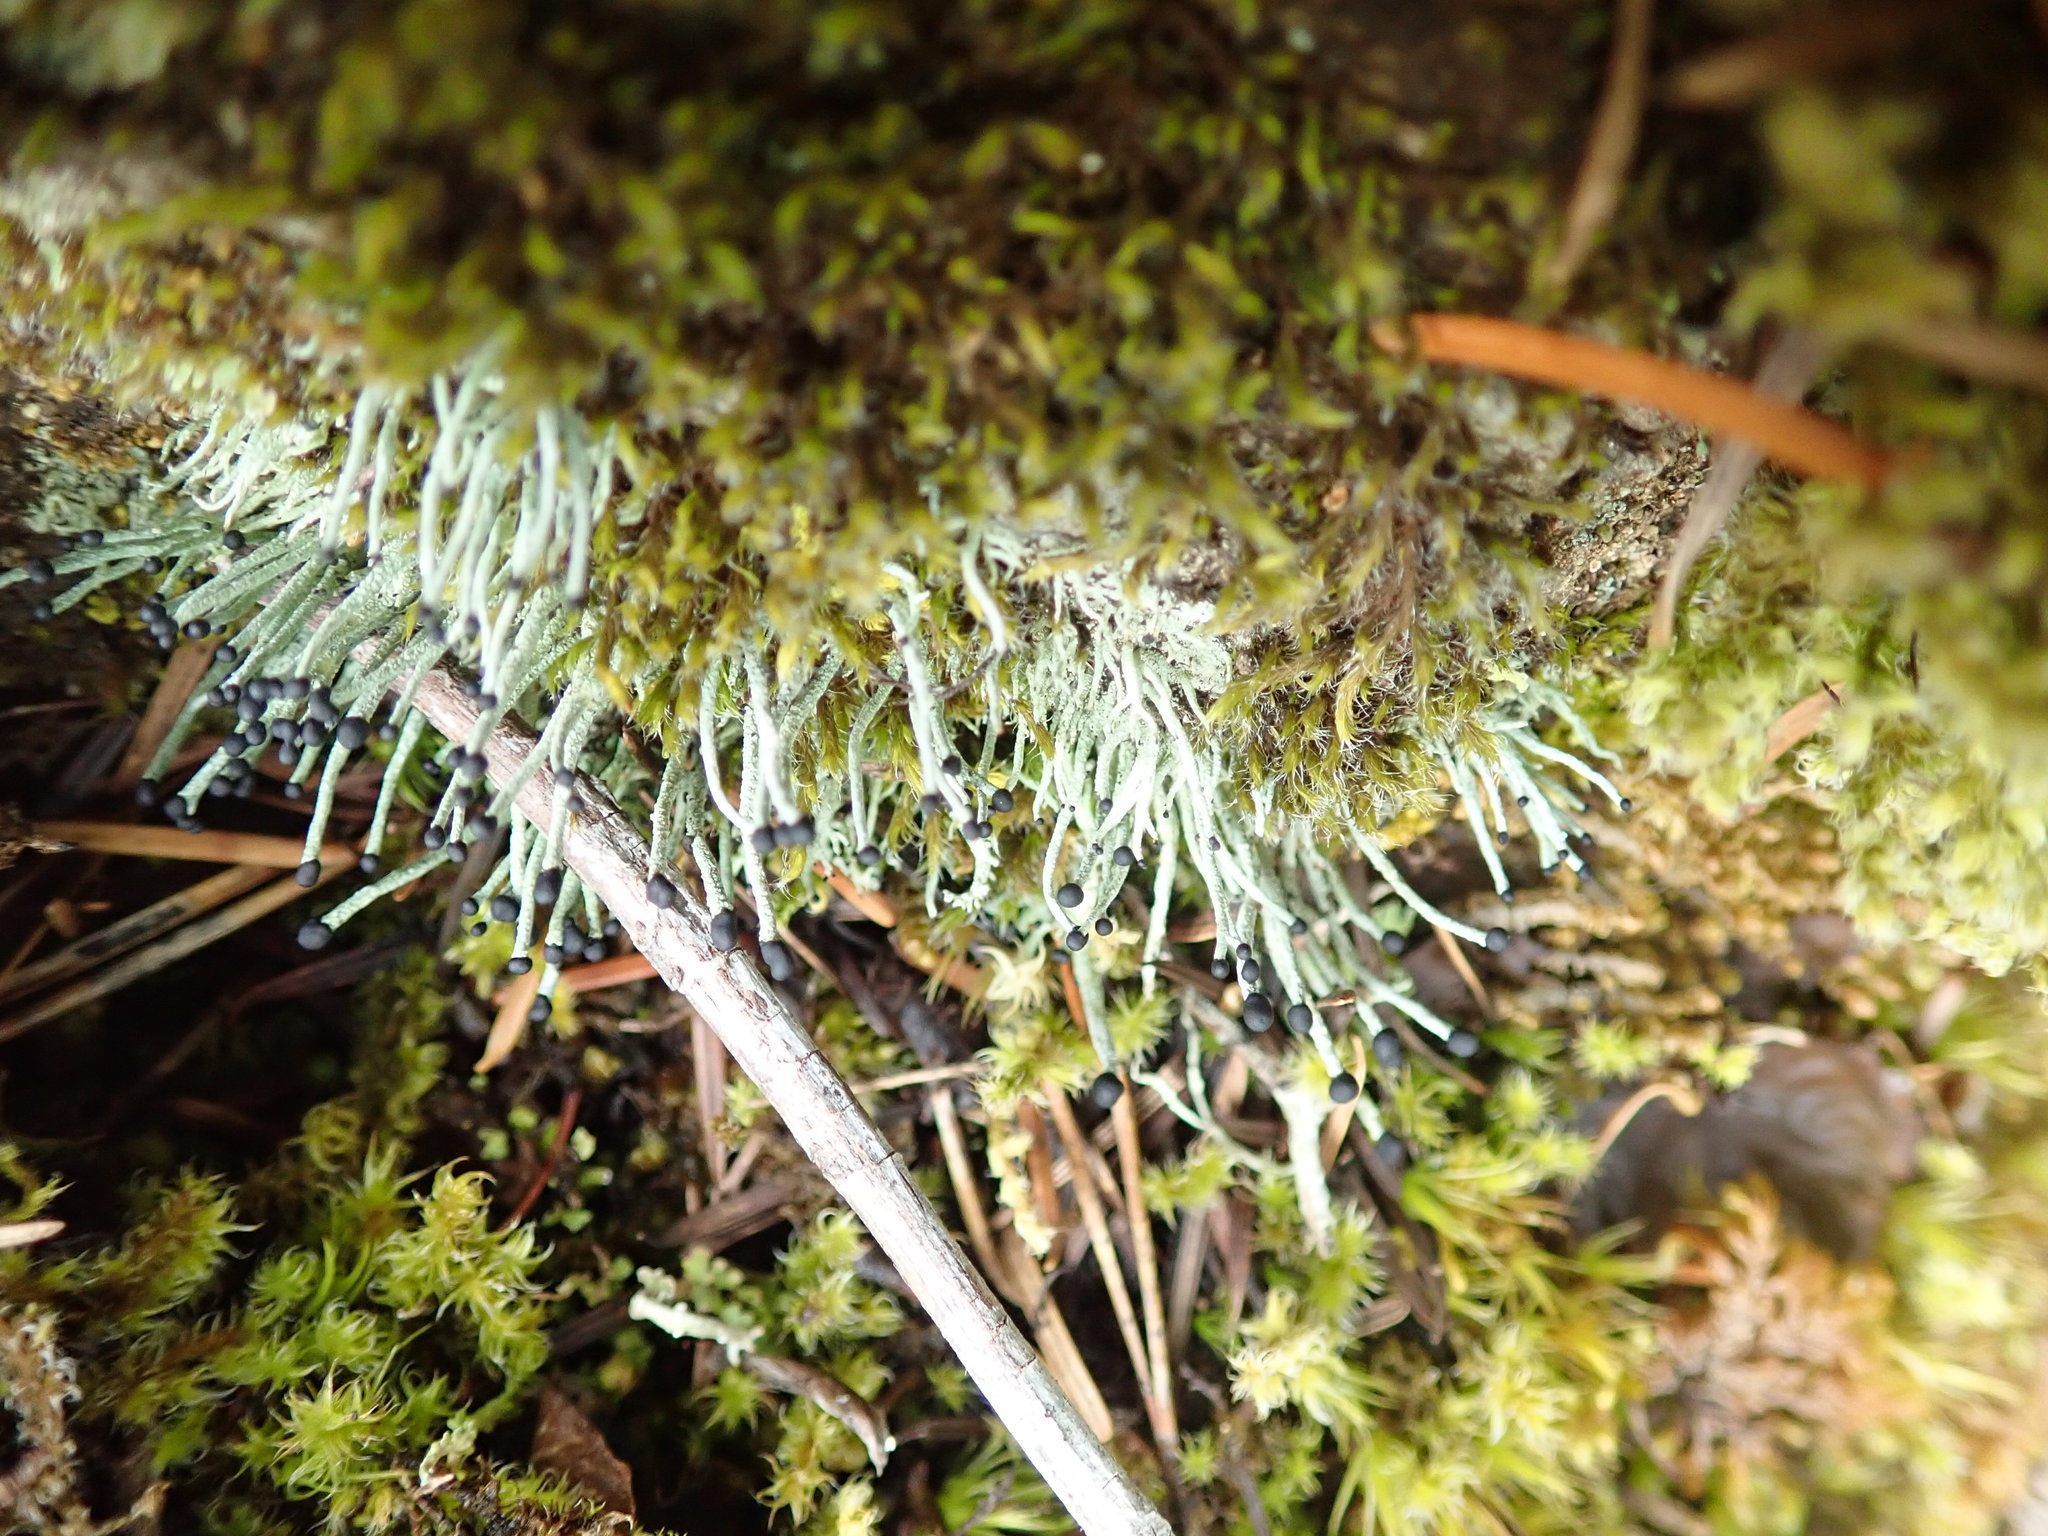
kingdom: Fungi
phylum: Ascomycota
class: Lecanoromycetes
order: Lecanorales
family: Cladoniaceae
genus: Pilophorus
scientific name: Pilophorus acicularis
